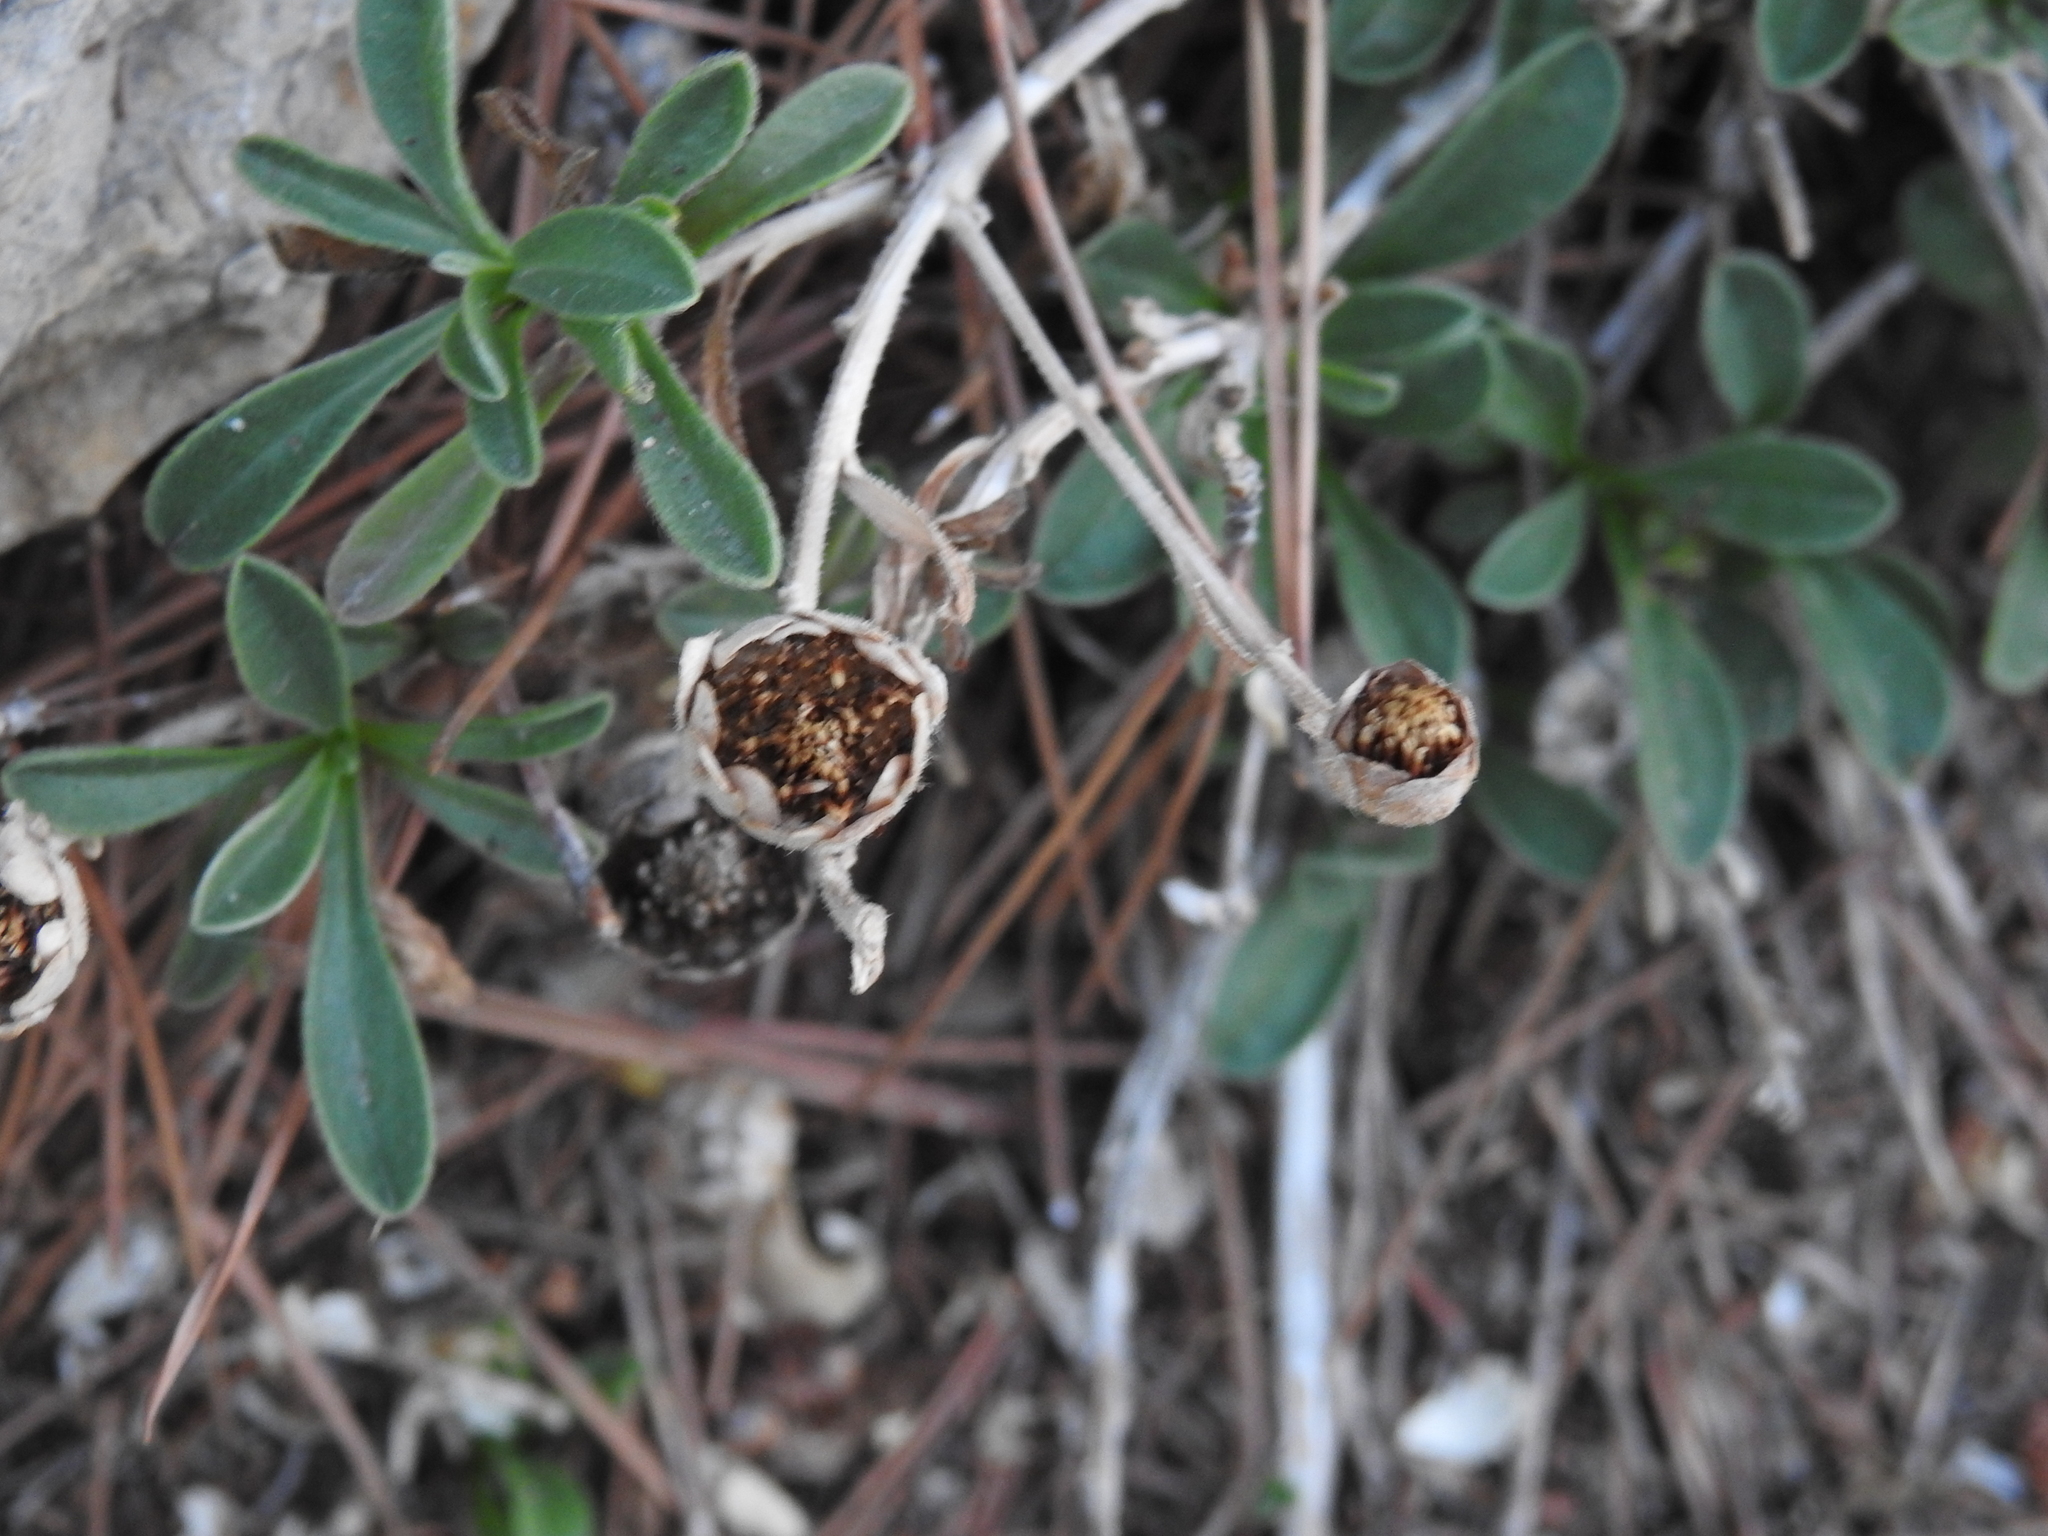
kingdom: Plantae
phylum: Tracheophyta
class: Magnoliopsida
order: Asterales
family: Asteraceae
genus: Pallenis
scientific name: Pallenis maritima
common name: Golden coin daisy
